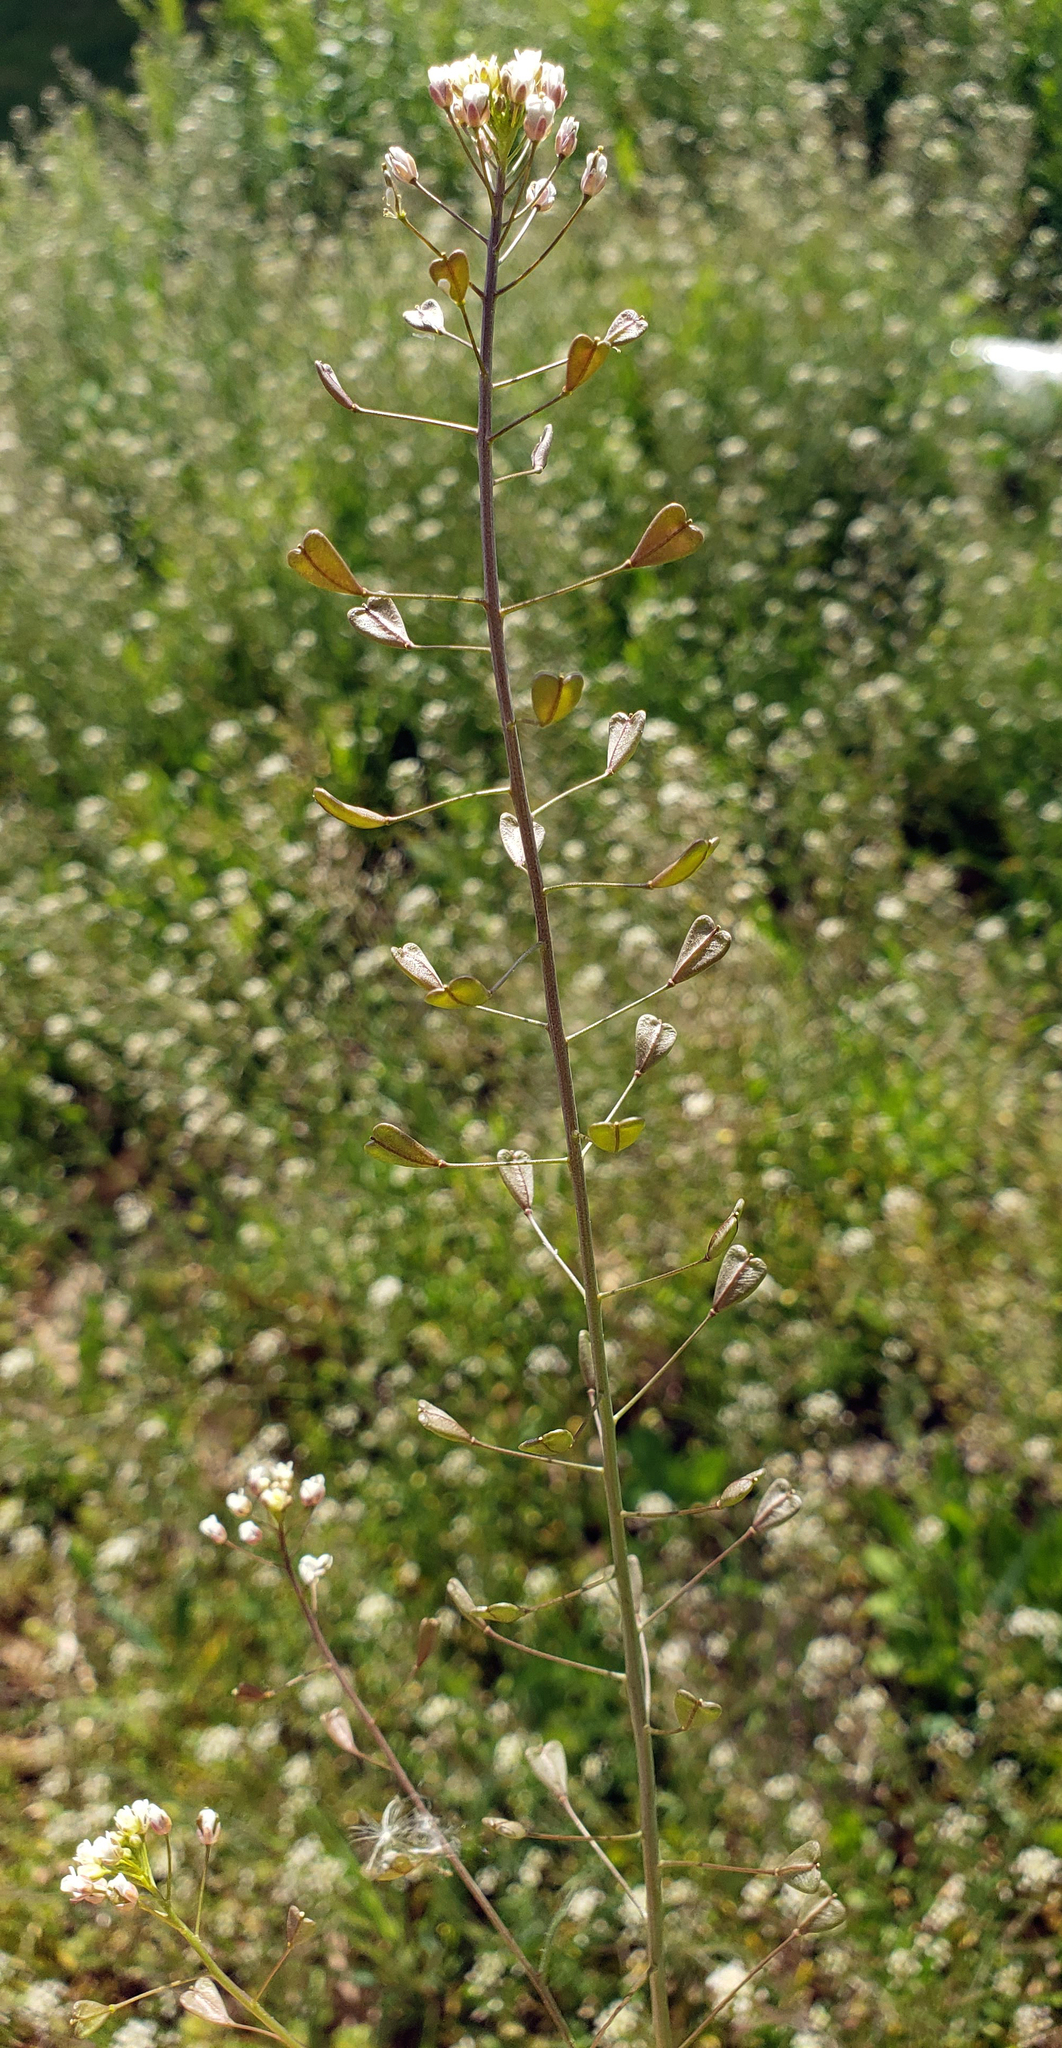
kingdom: Plantae
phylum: Tracheophyta
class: Magnoliopsida
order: Brassicales
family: Brassicaceae
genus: Capsella
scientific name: Capsella bursa-pastoris
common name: Shepherd's purse
